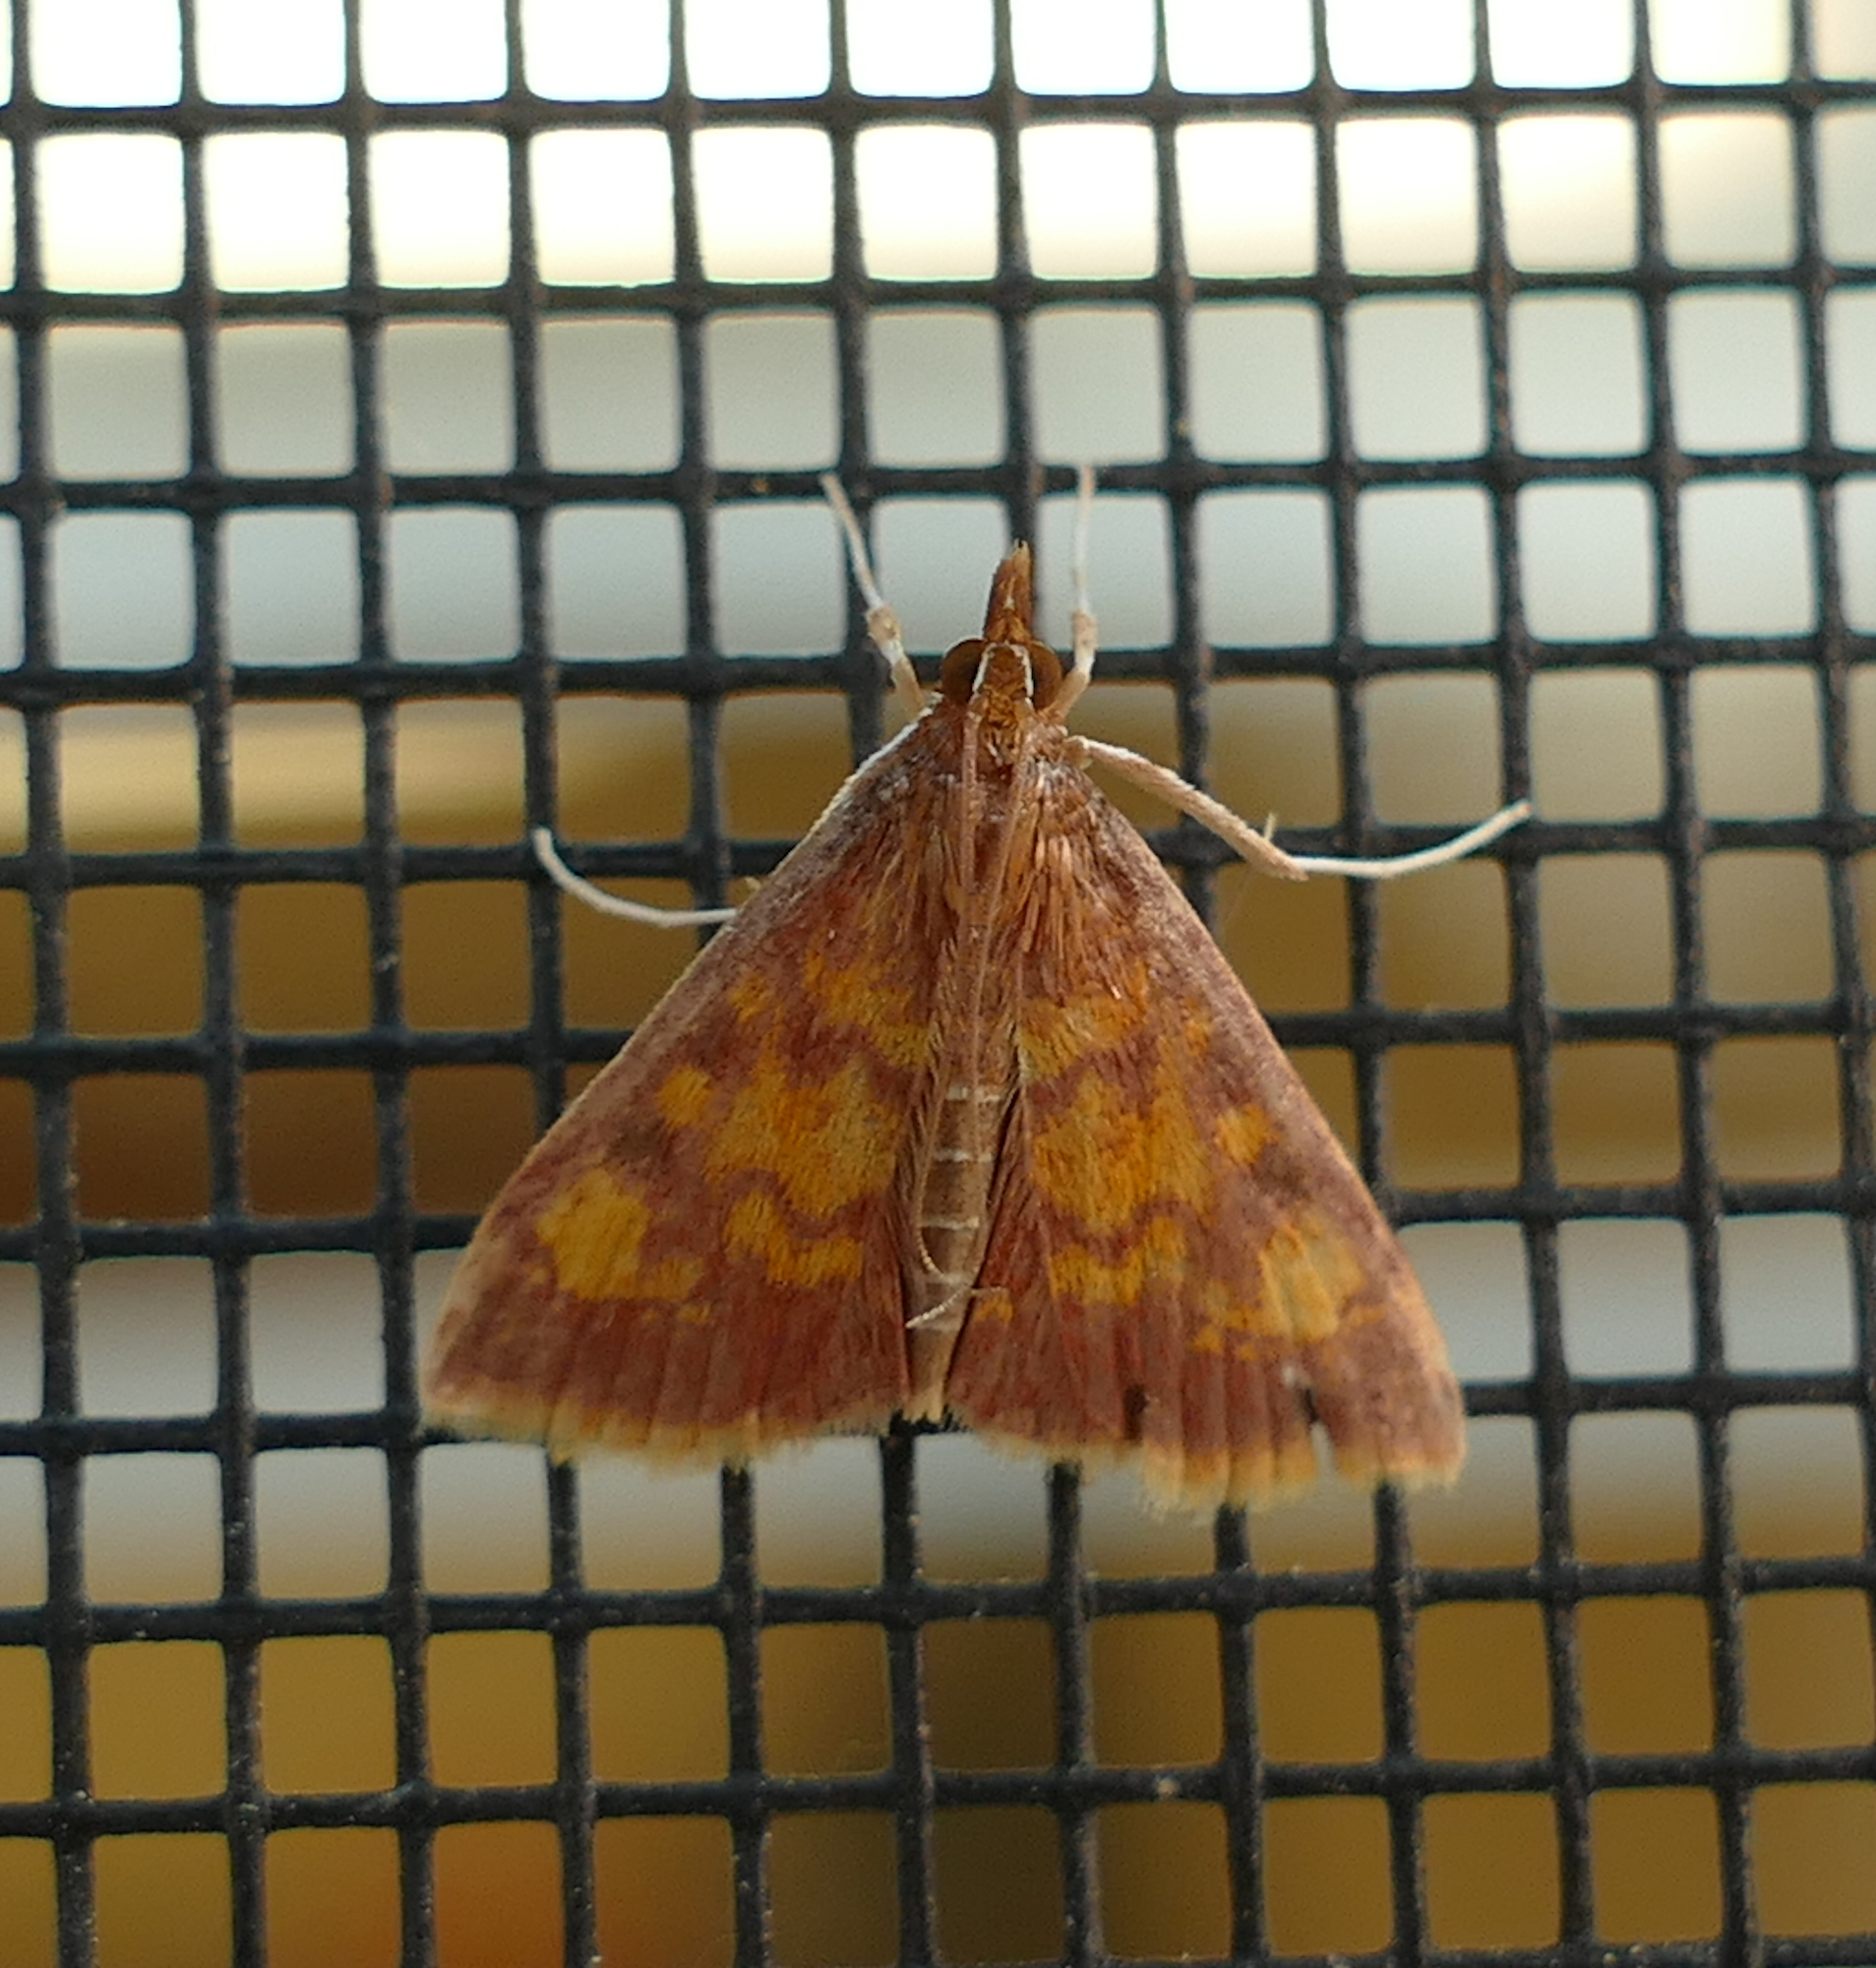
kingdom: Animalia
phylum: Arthropoda
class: Insecta
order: Lepidoptera
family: Crambidae
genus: Pyrausta
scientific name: Pyrausta acrionalis
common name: Mint-loving pyrausta moth
